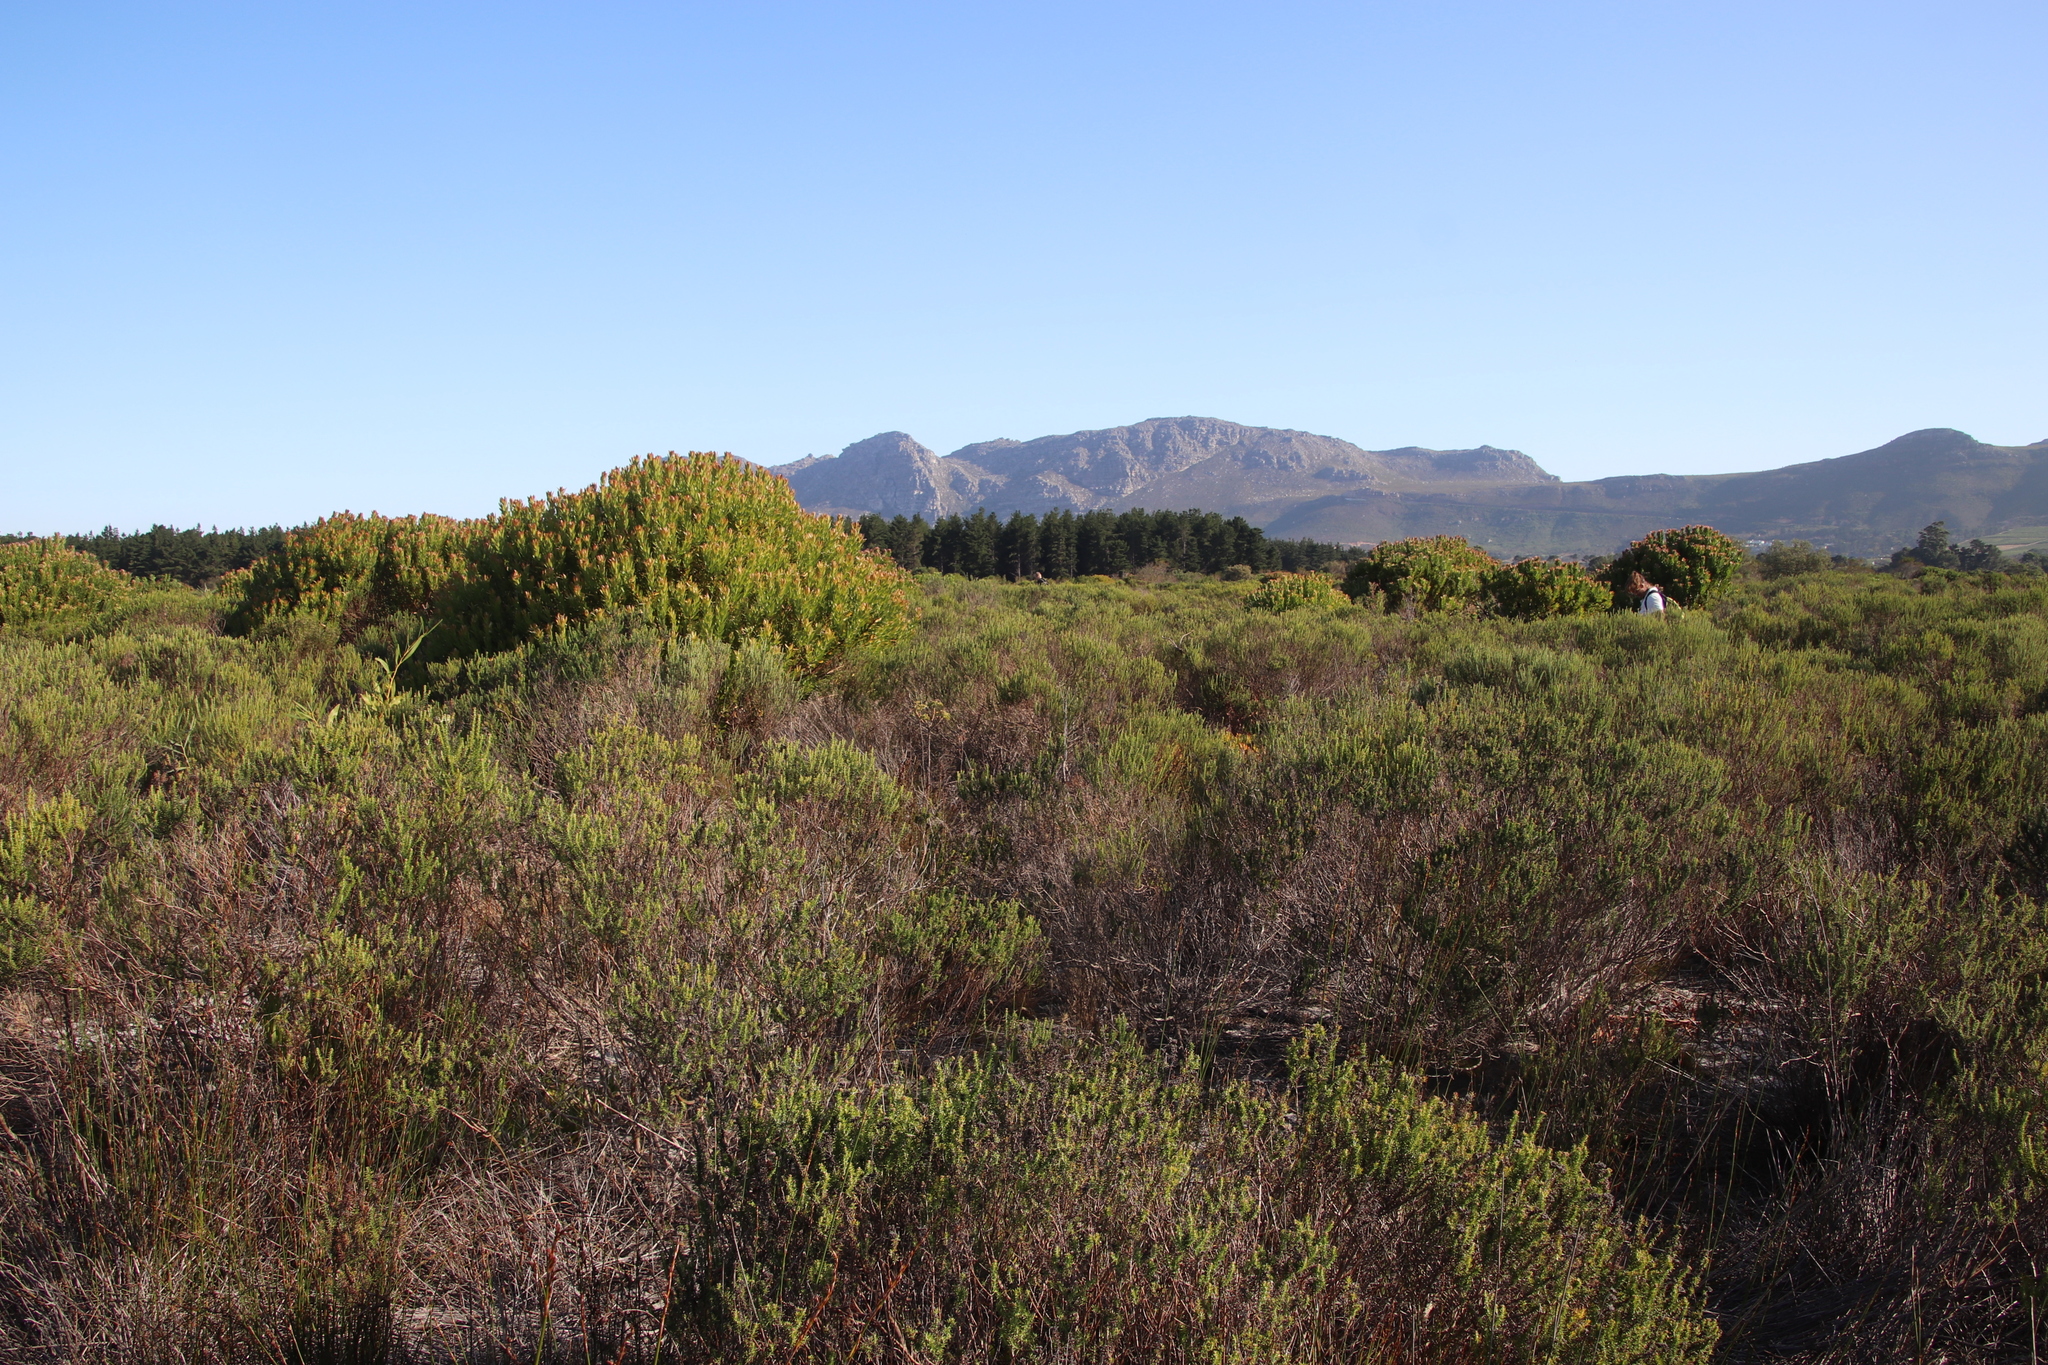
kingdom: Plantae
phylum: Tracheophyta
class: Magnoliopsida
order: Proteales
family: Proteaceae
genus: Leucadendron
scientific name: Leucadendron laureolum
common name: Golden sunshinebush
